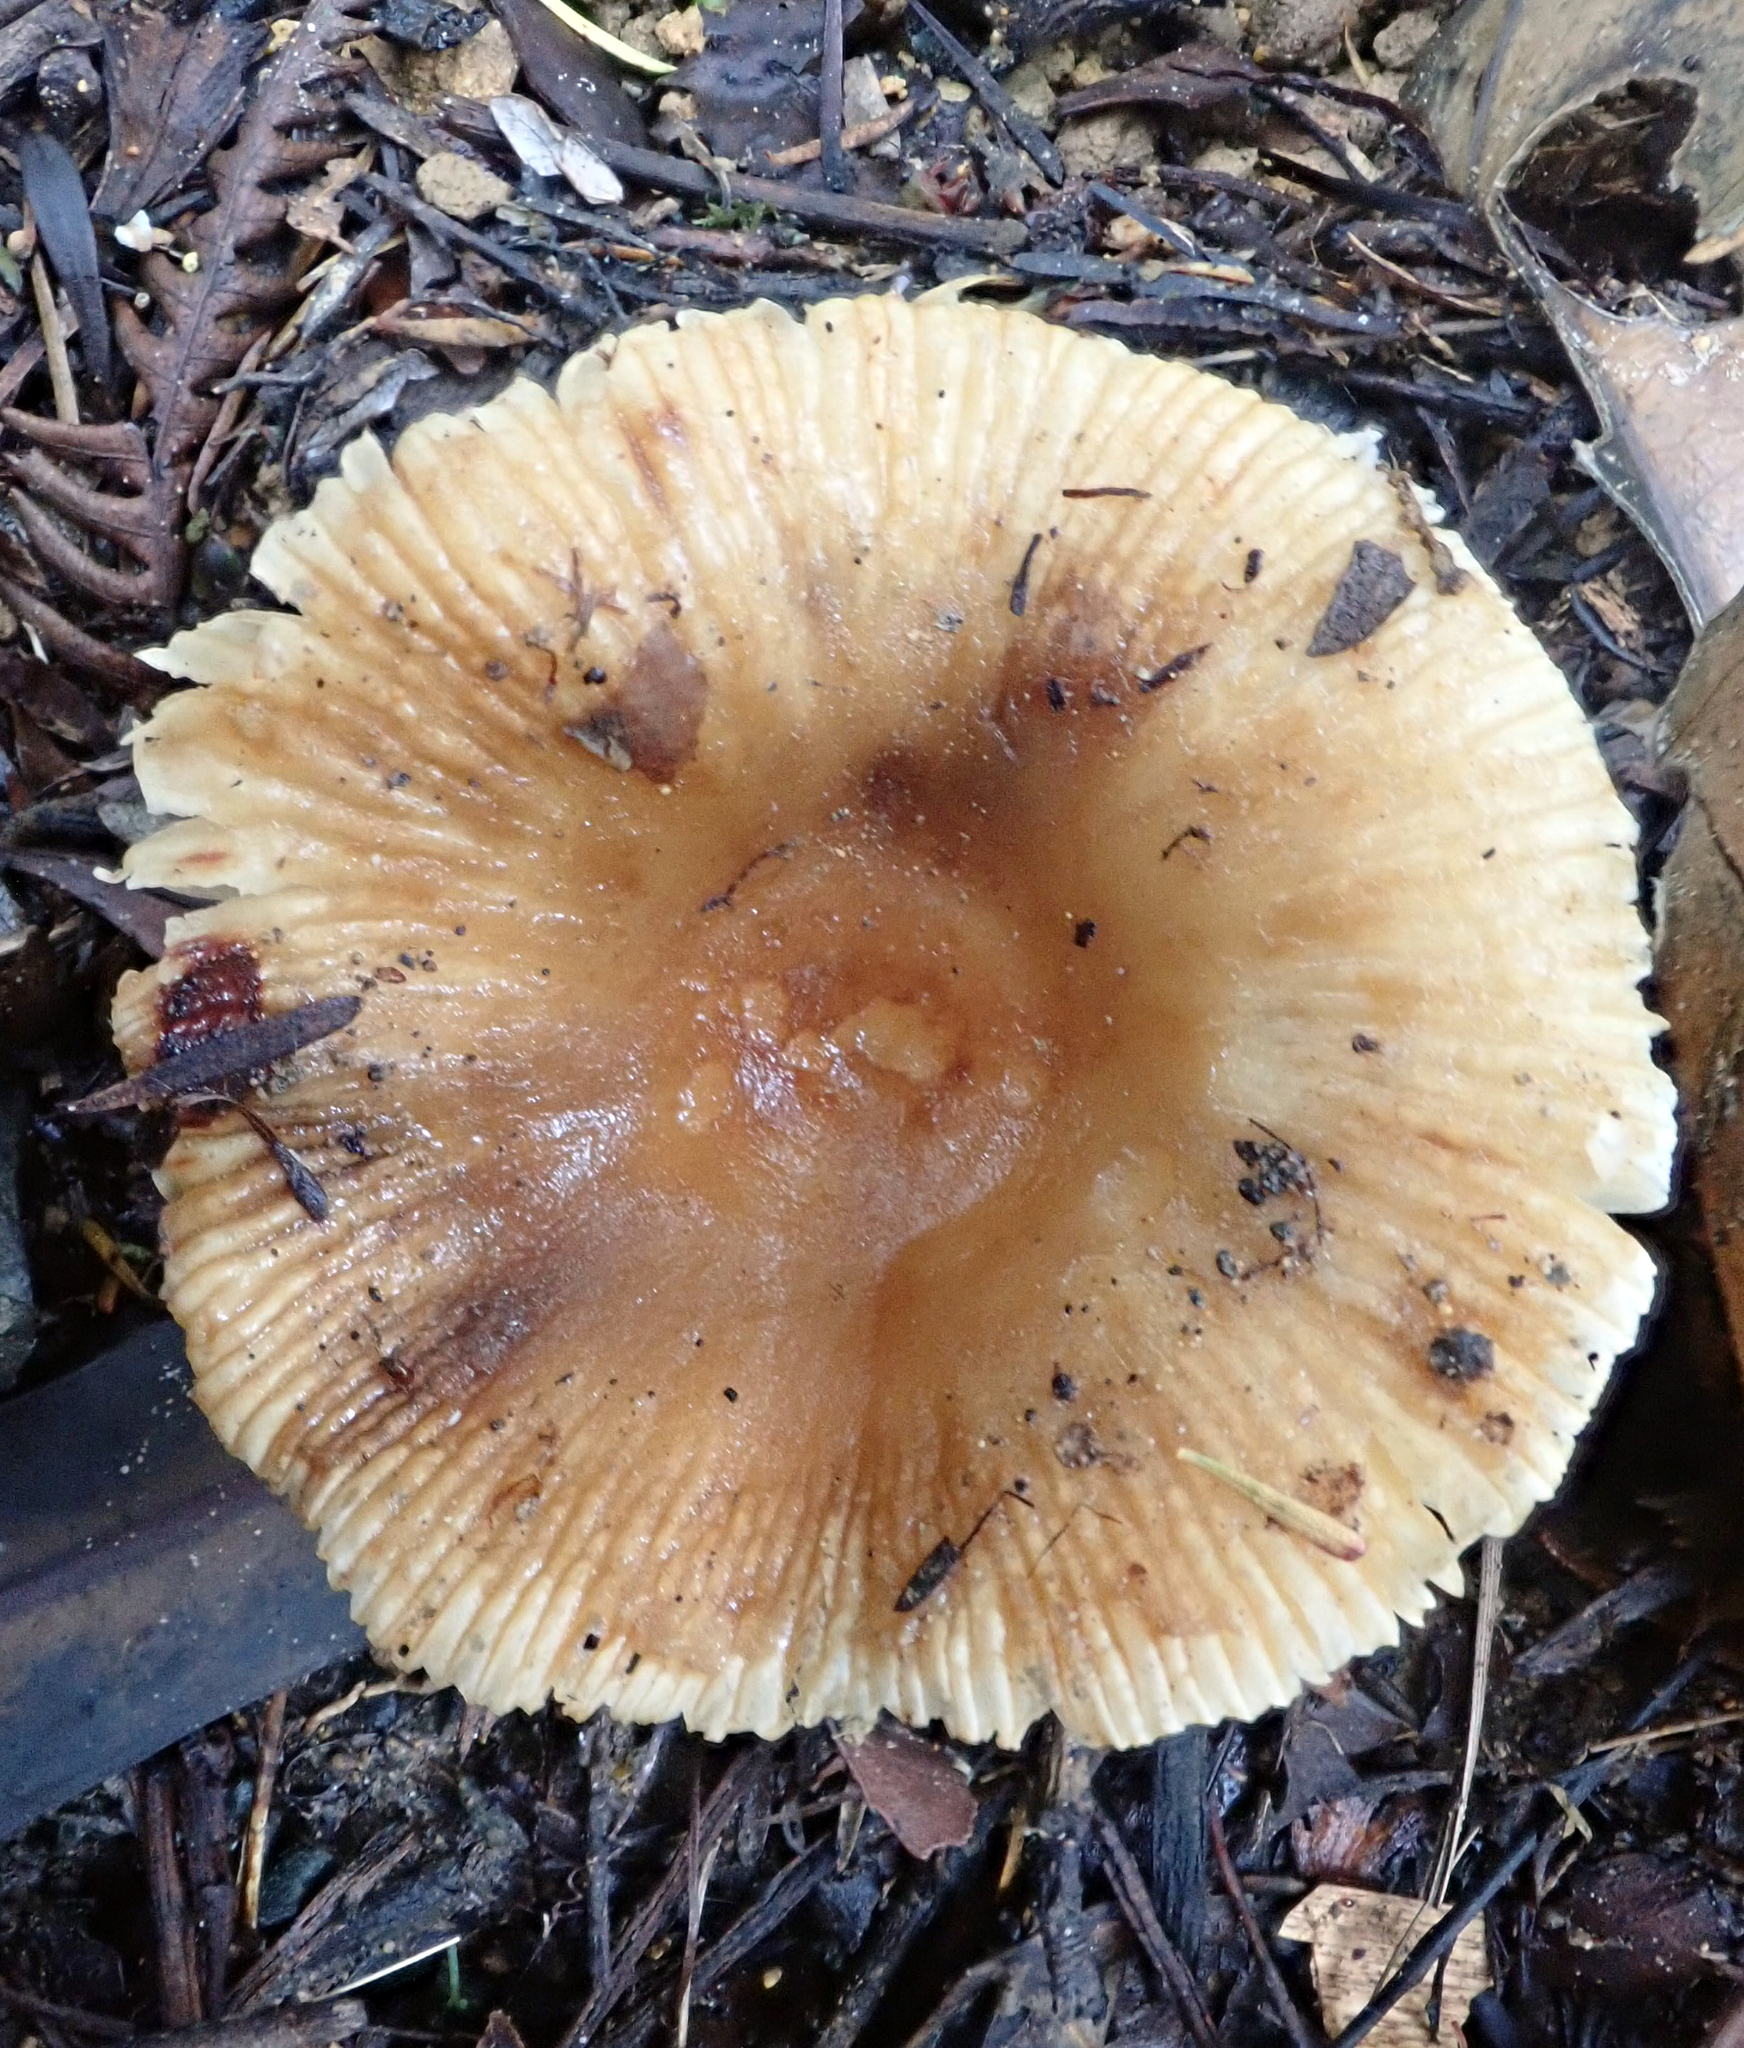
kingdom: Fungi
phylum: Basidiomycota
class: Agaricomycetes
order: Russulales
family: Russulaceae
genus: Russula
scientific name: Russula acrolamellata
